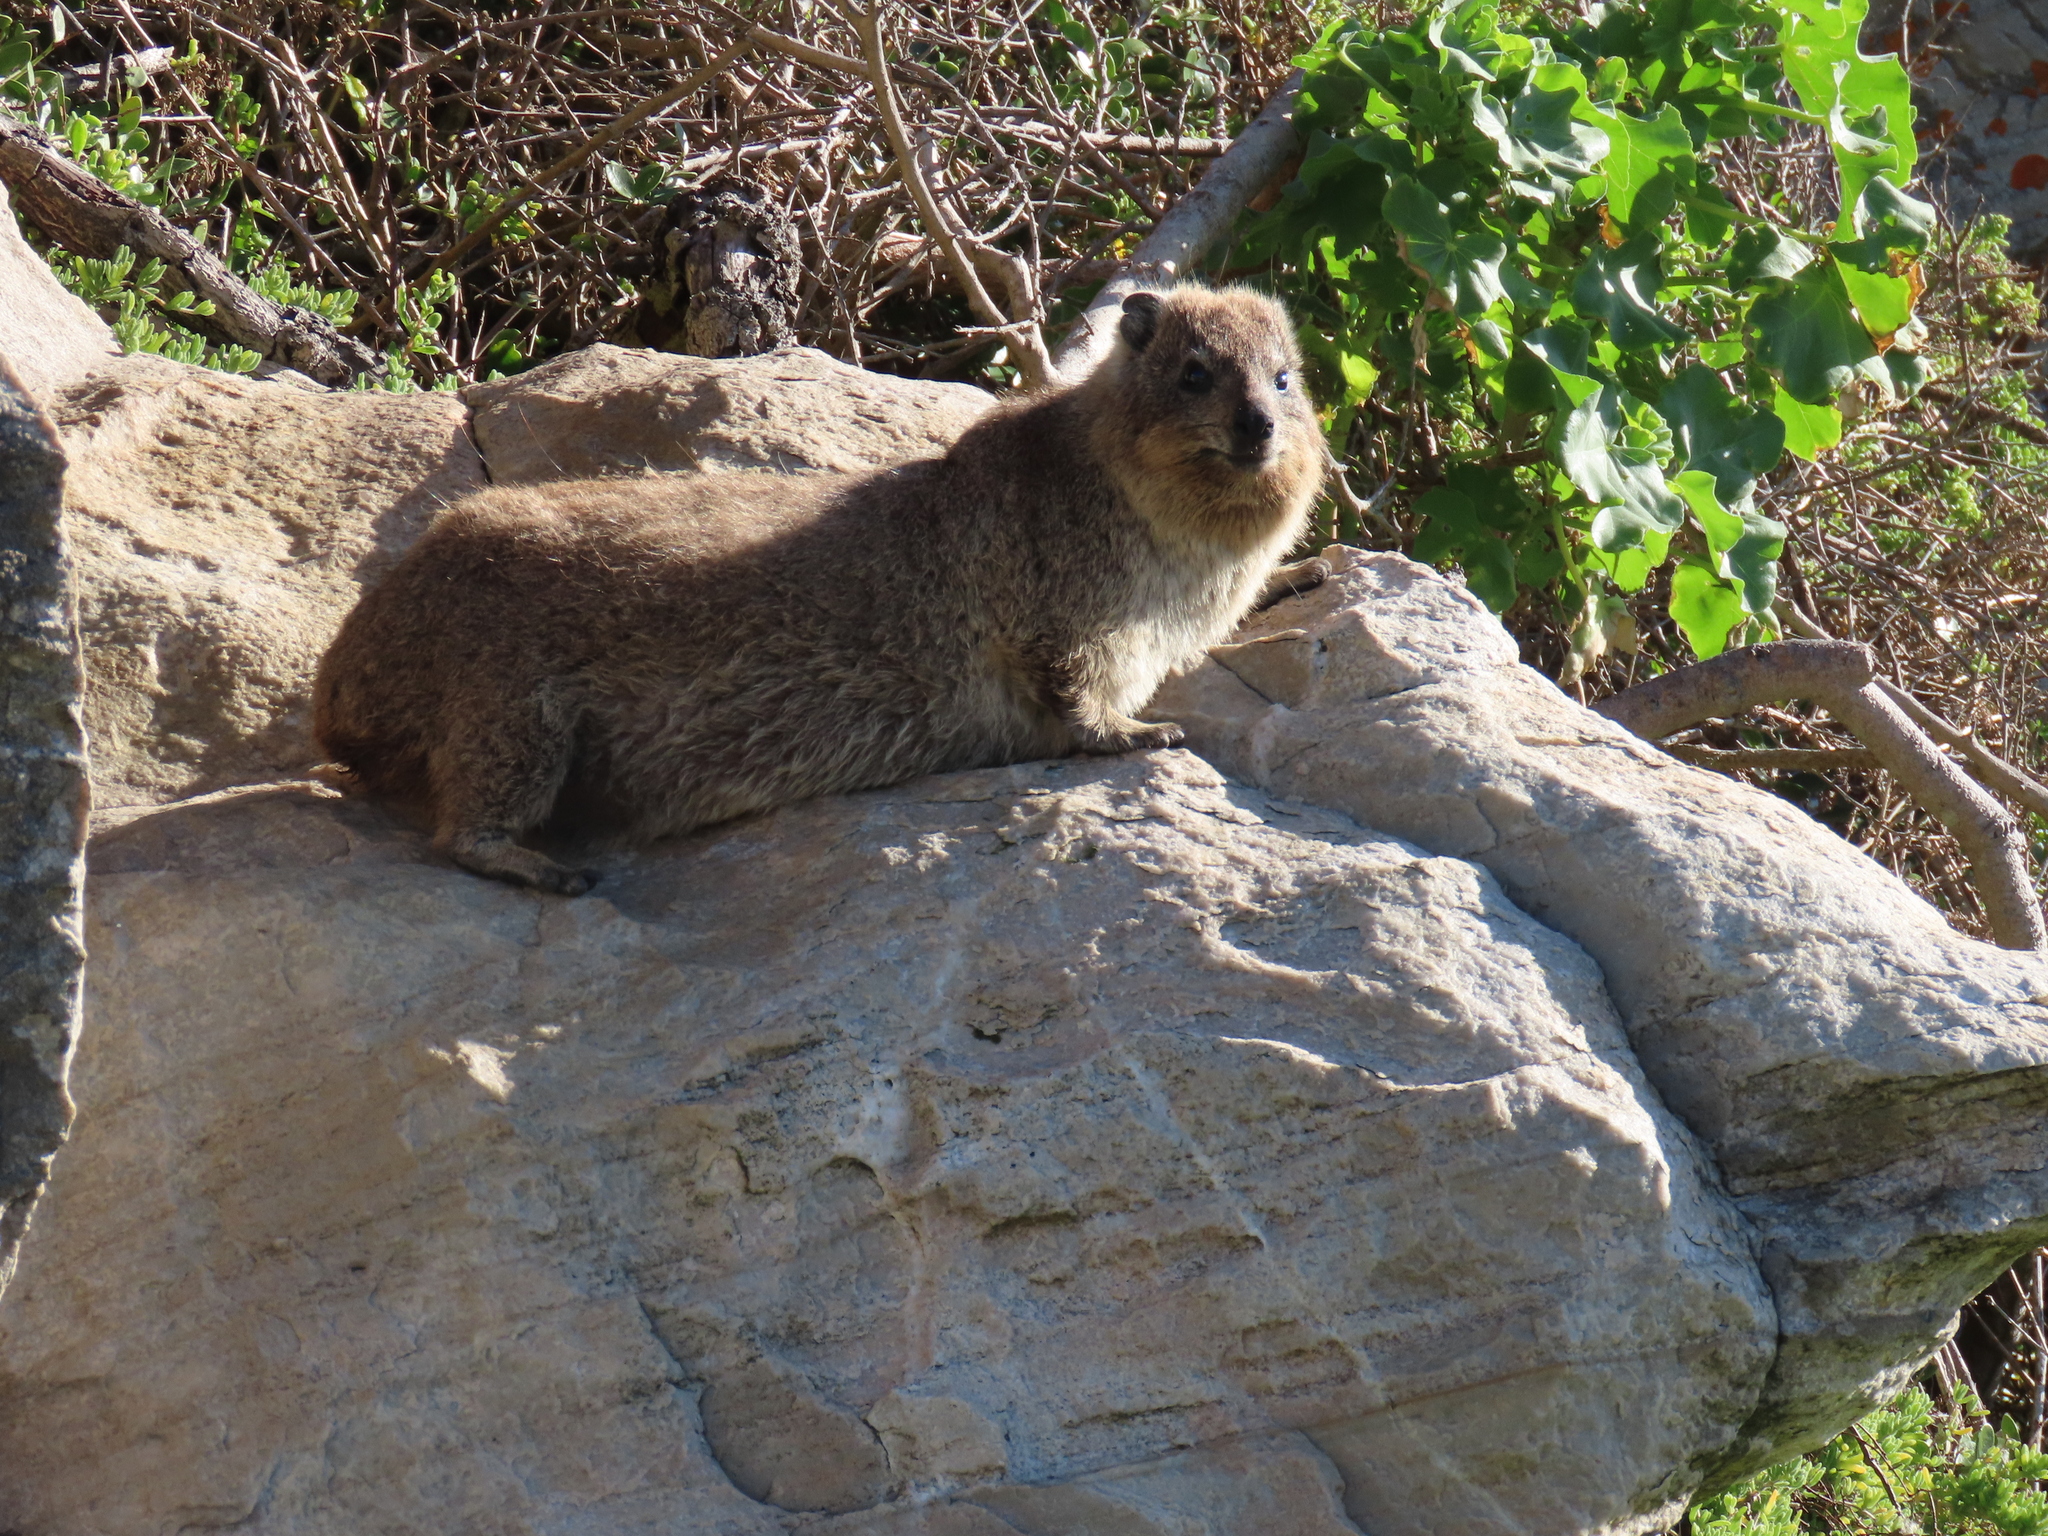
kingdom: Animalia
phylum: Chordata
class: Mammalia
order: Hyracoidea
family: Procaviidae
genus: Procavia
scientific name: Procavia capensis
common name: Rock hyrax
